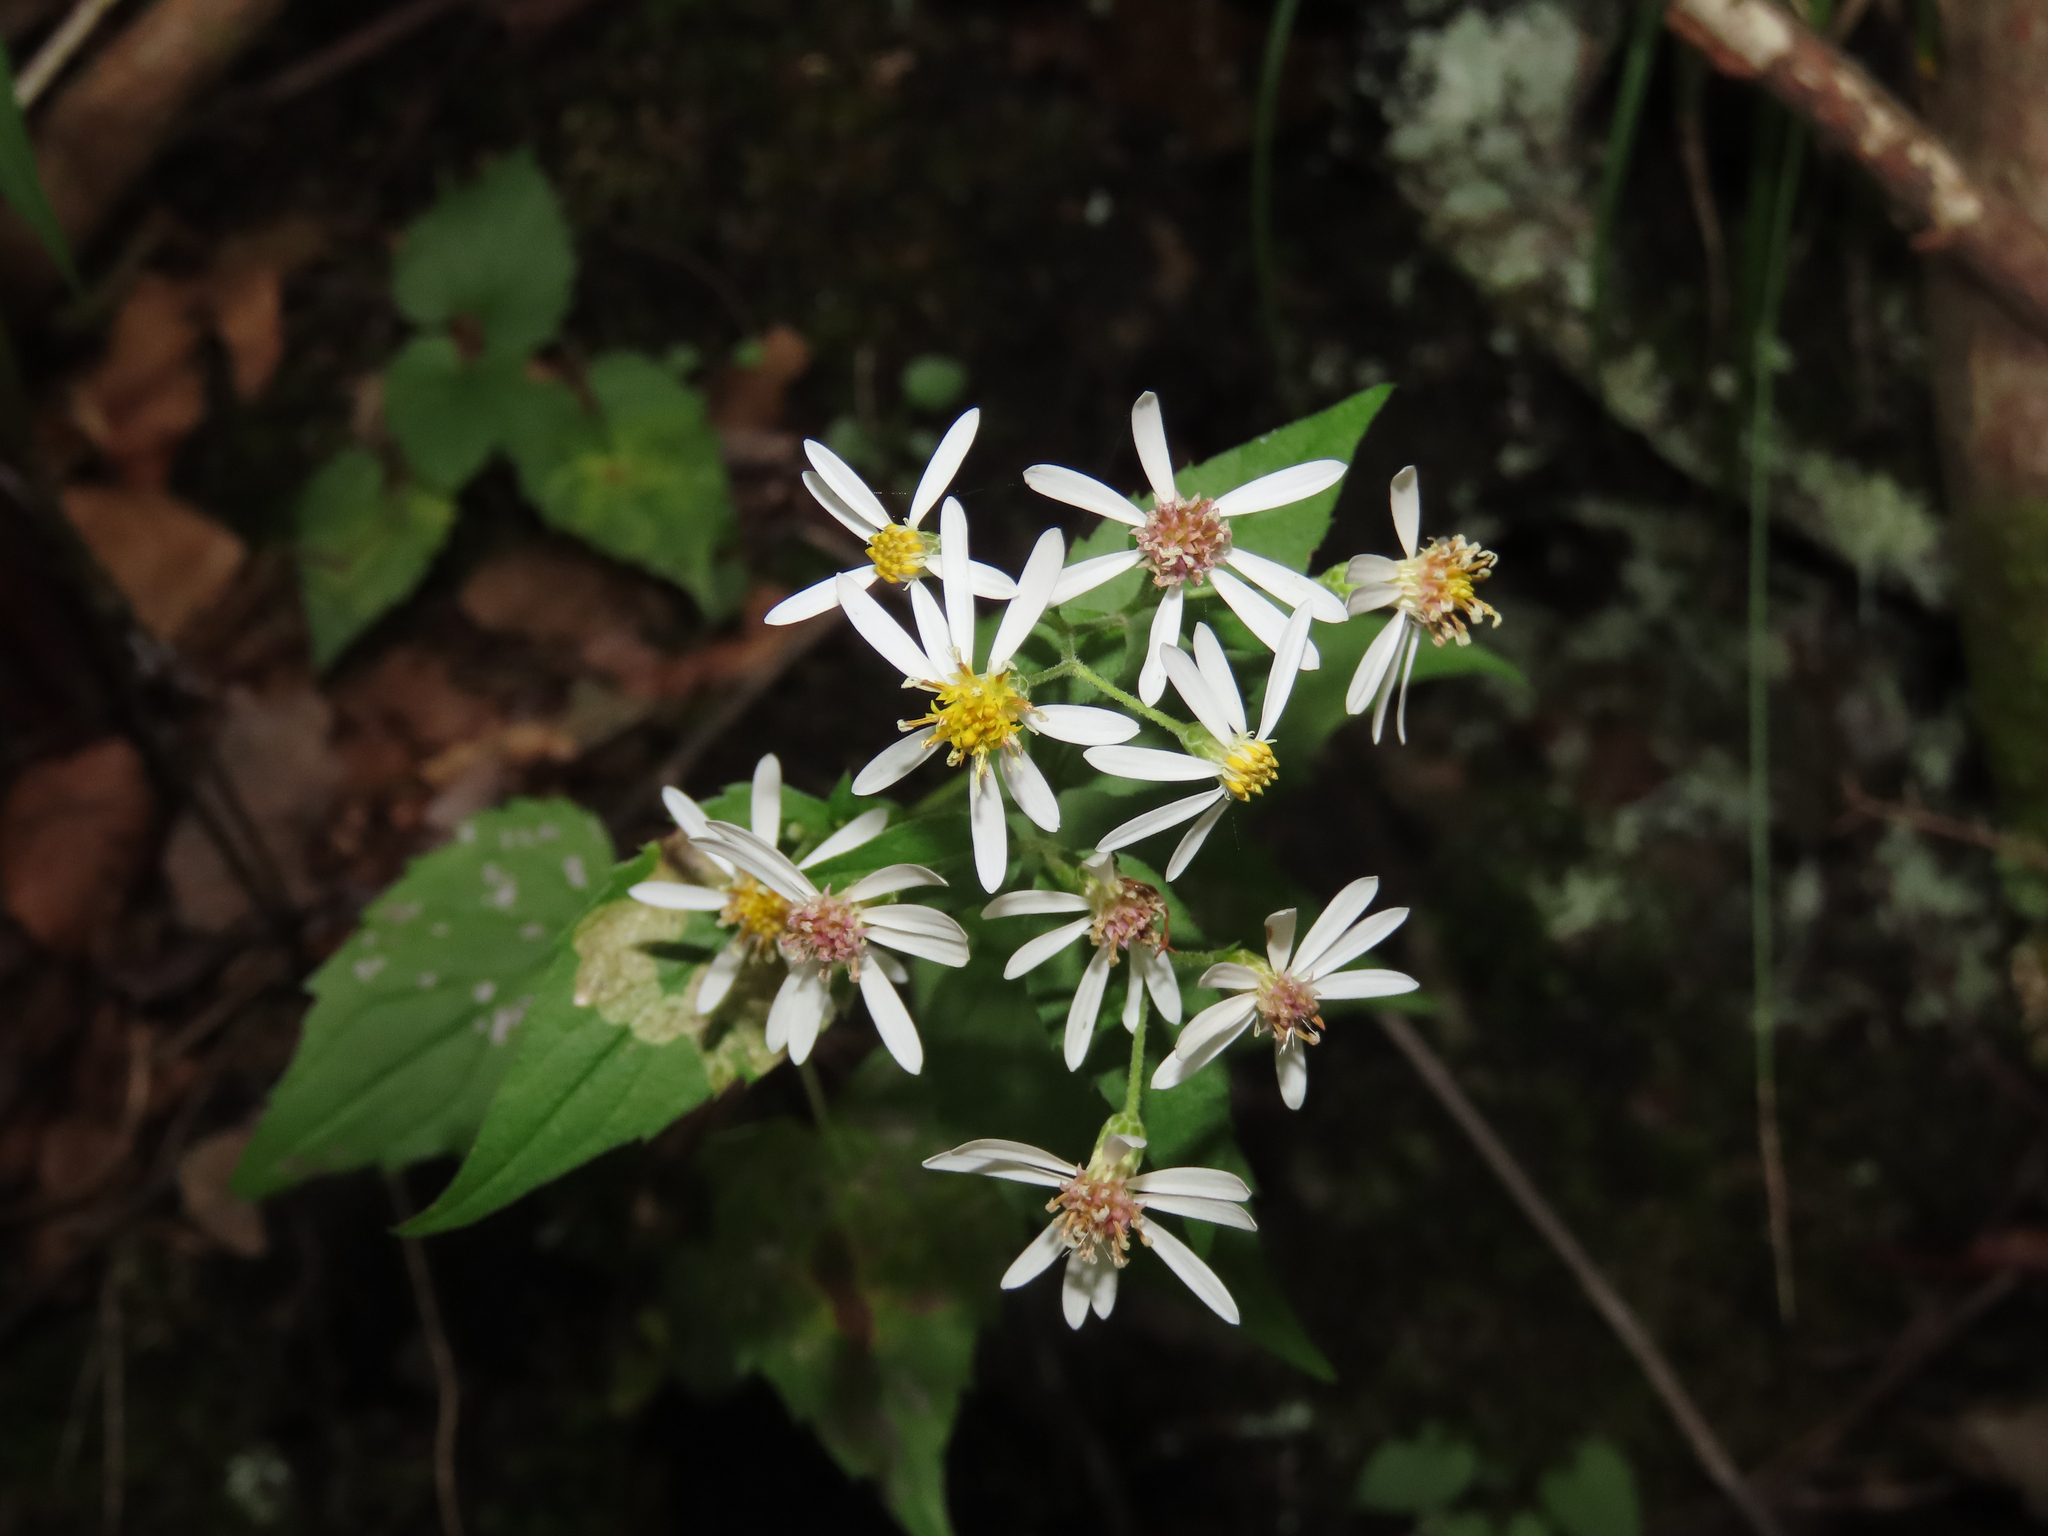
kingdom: Plantae
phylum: Tracheophyta
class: Magnoliopsida
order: Asterales
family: Asteraceae
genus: Eurybia
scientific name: Eurybia divaricata
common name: White wood aster
